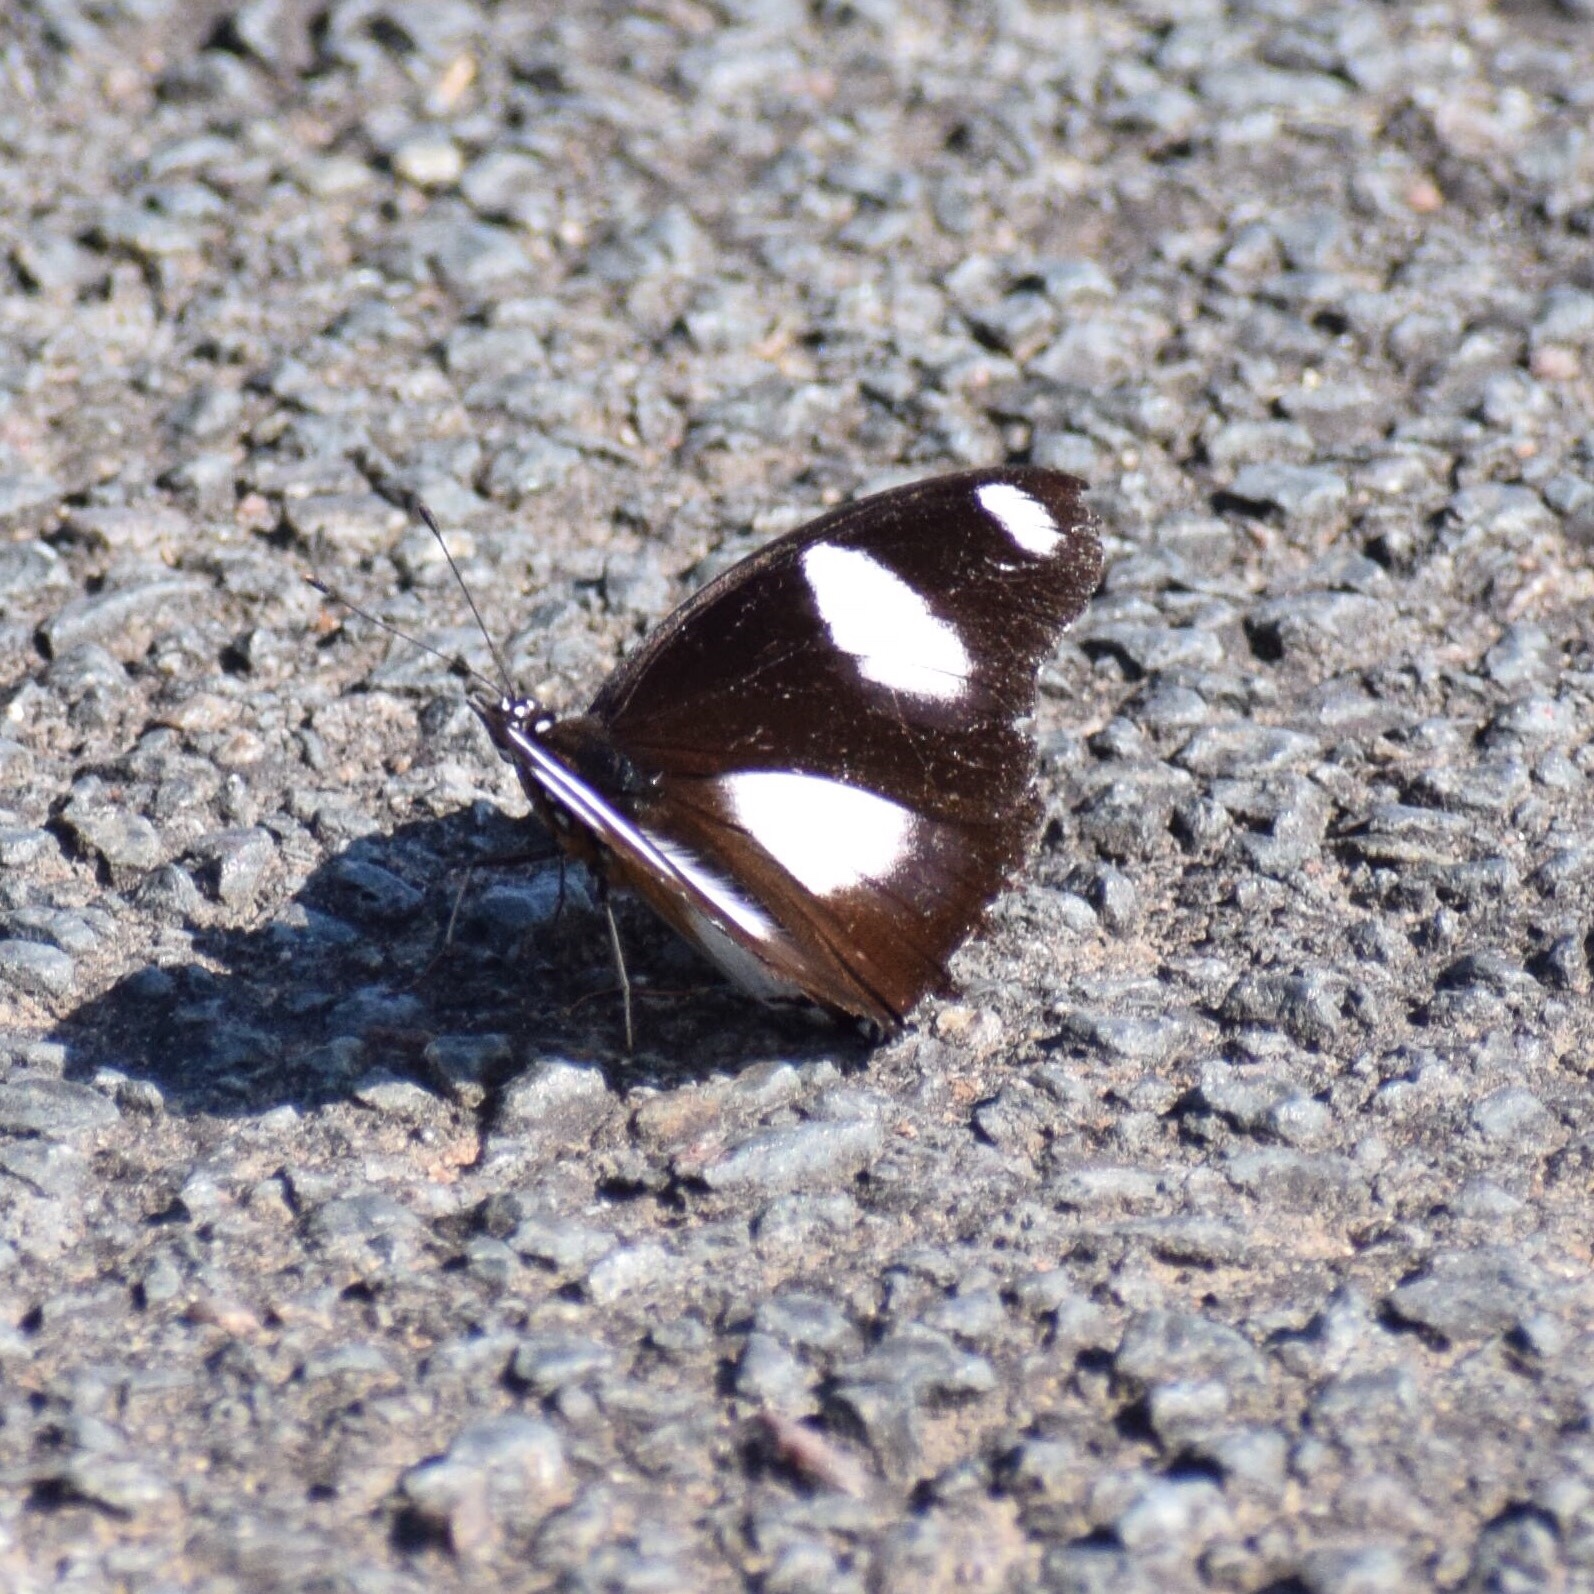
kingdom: Animalia
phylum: Arthropoda
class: Insecta
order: Lepidoptera
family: Nymphalidae
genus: Hypolimnas
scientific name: Hypolimnas misippus
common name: False plain tiger
